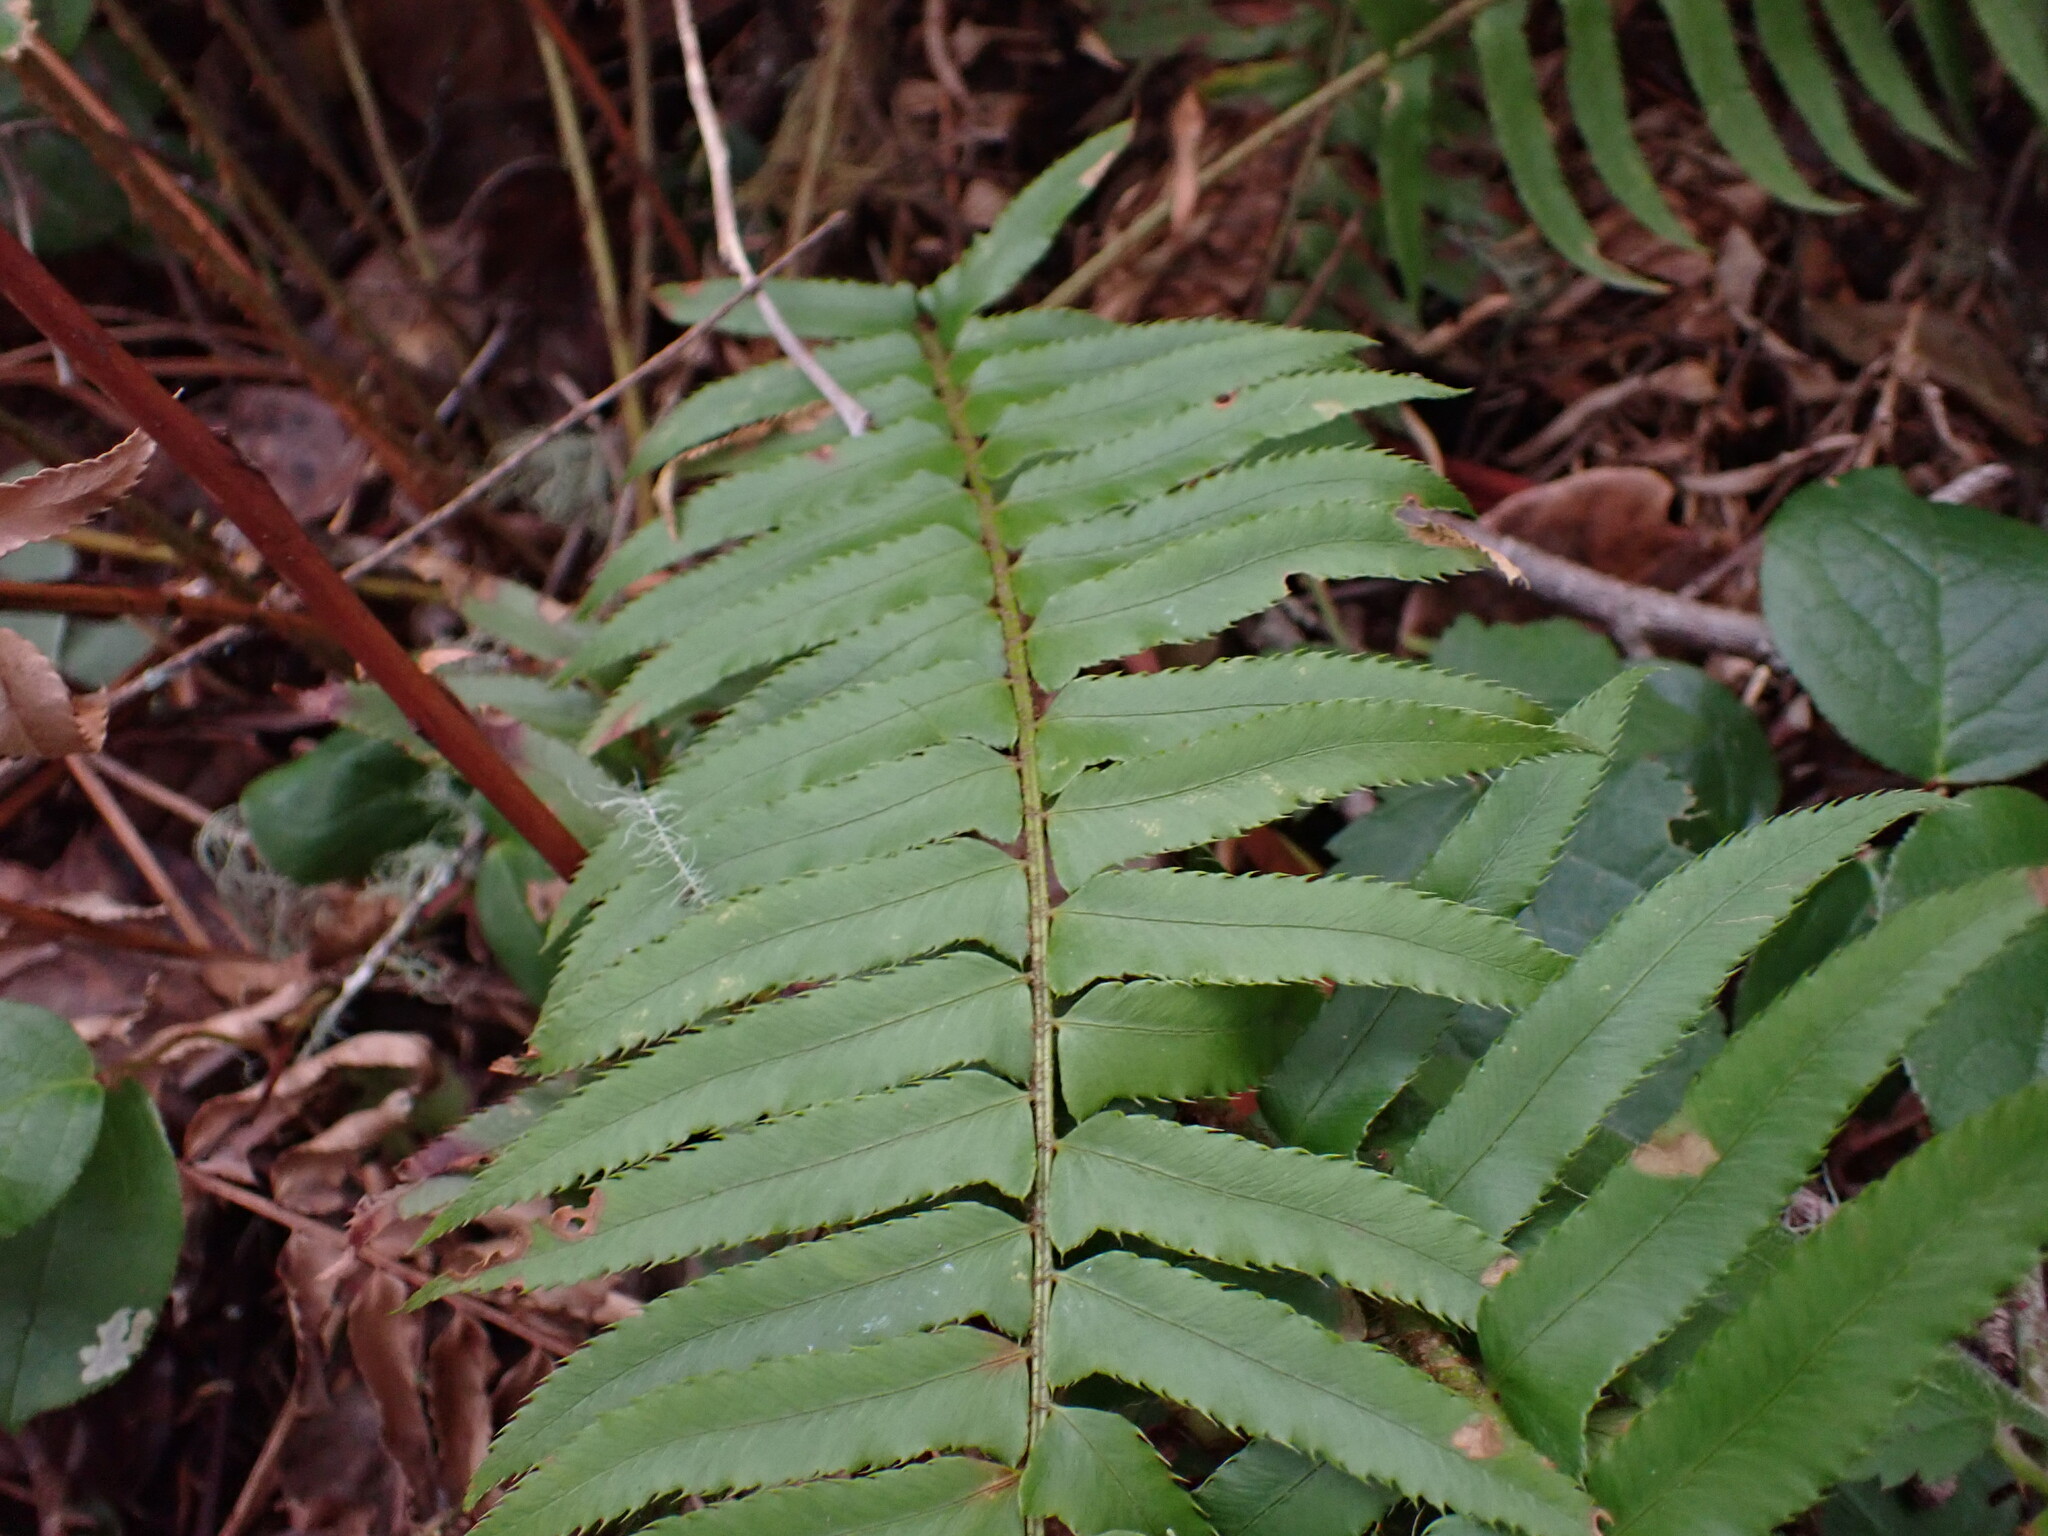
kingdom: Plantae
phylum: Tracheophyta
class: Polypodiopsida
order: Polypodiales
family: Dryopteridaceae
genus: Polystichum
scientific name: Polystichum munitum
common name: Western sword-fern
